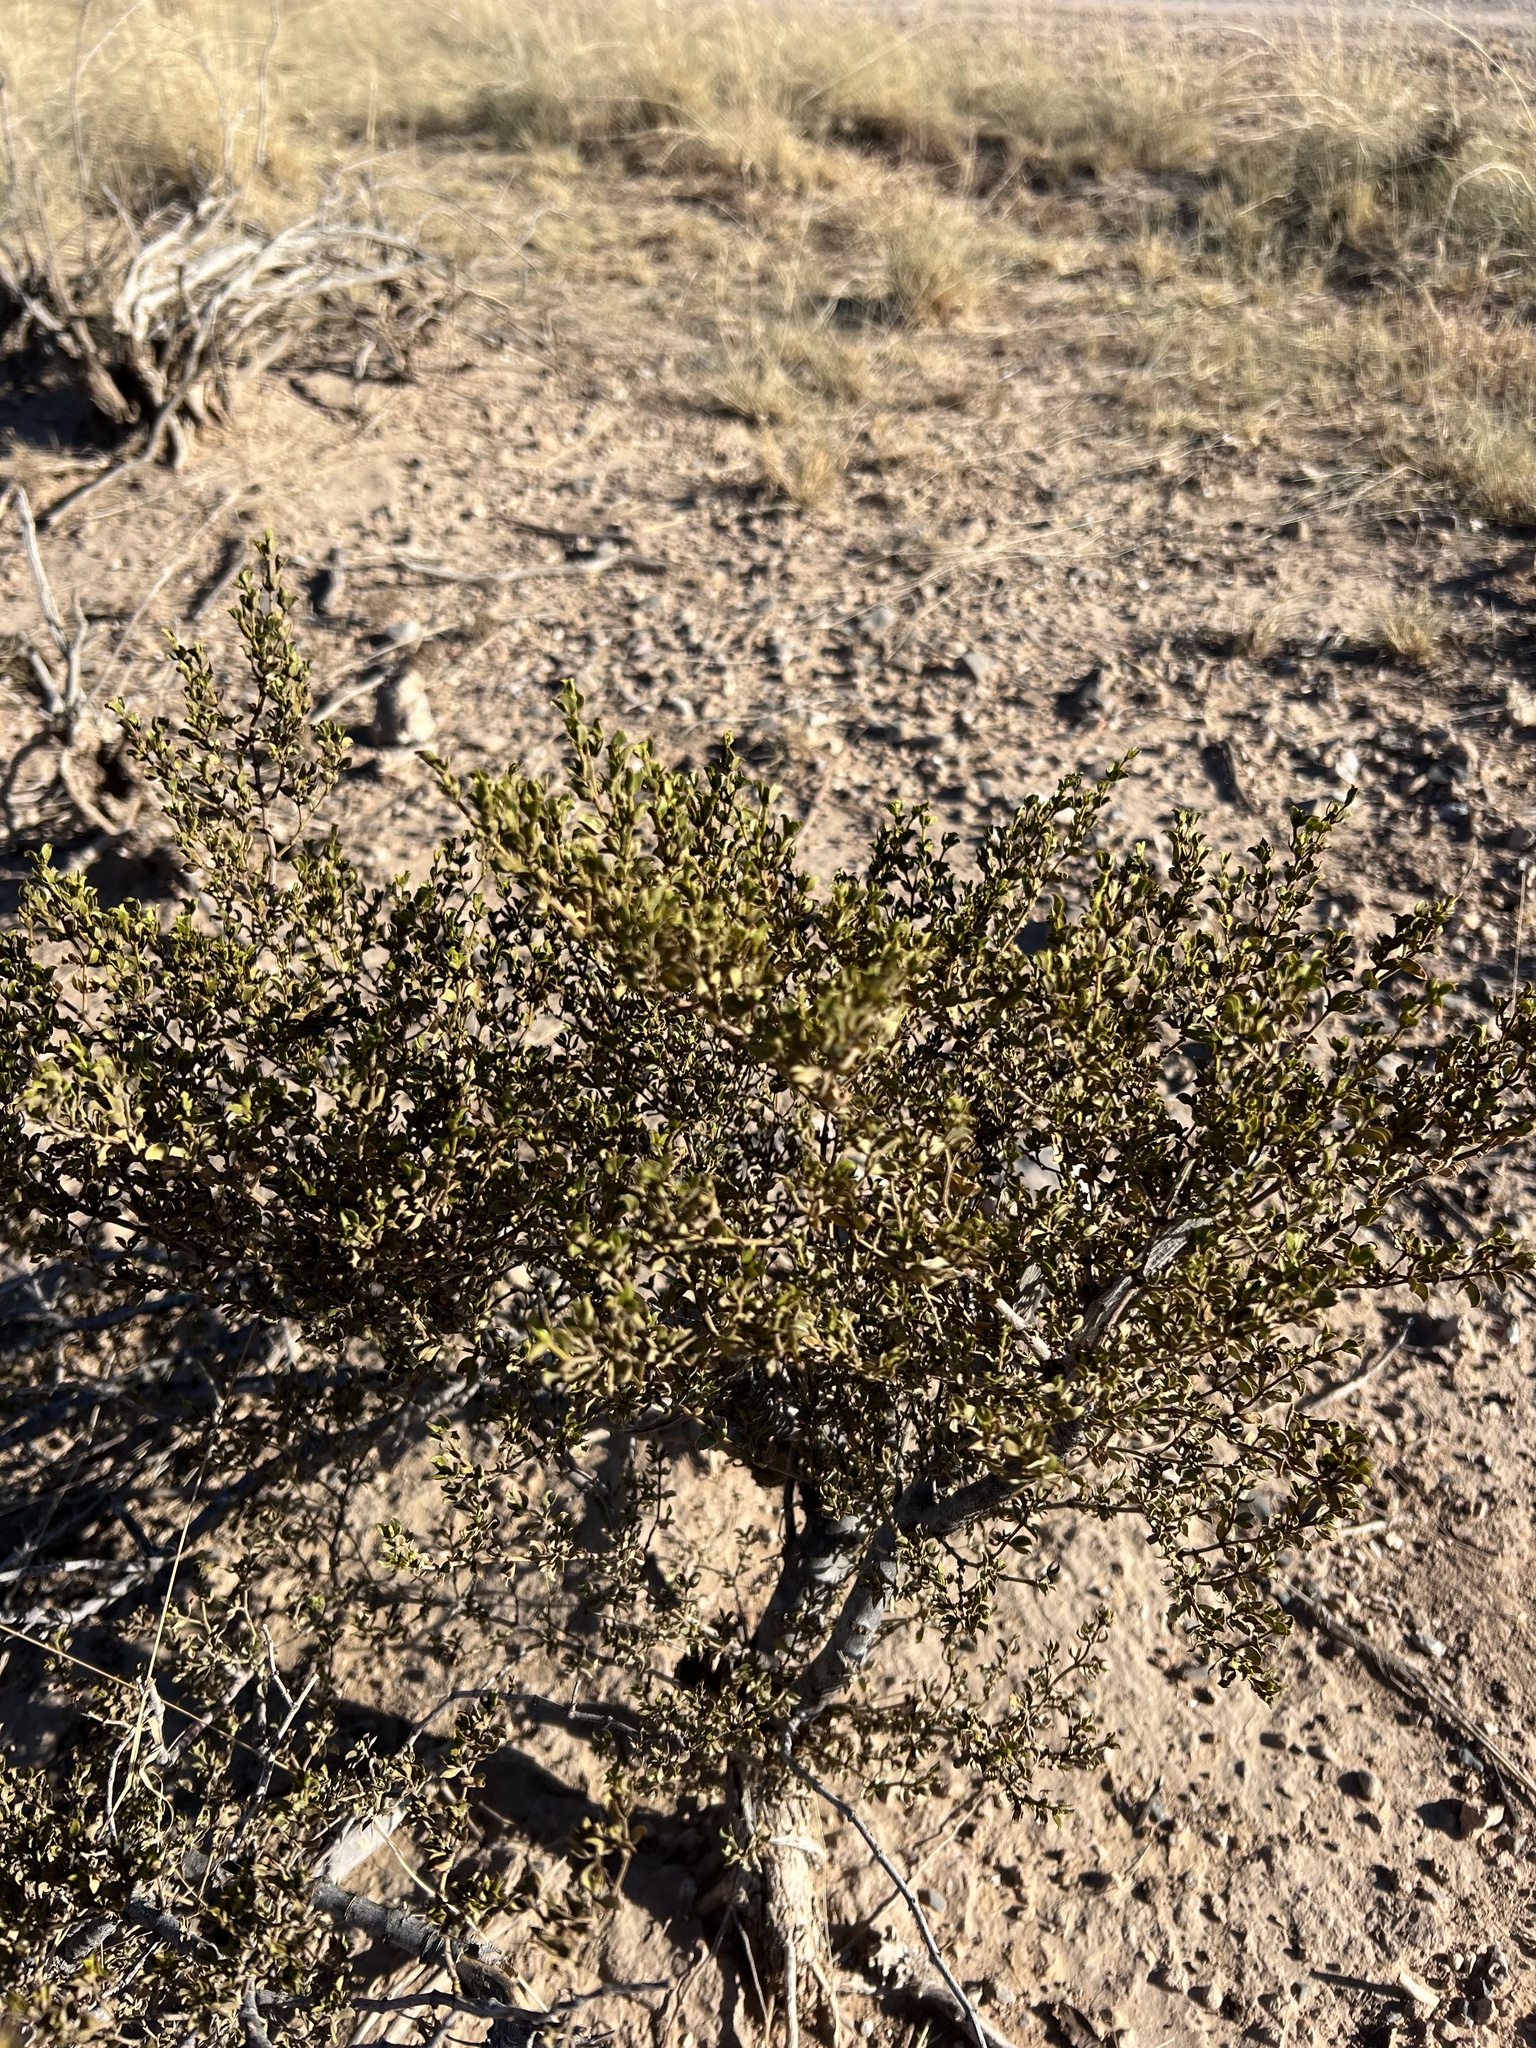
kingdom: Plantae
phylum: Tracheophyta
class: Magnoliopsida
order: Zygophyllales
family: Zygophyllaceae
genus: Larrea
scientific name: Larrea tridentata
